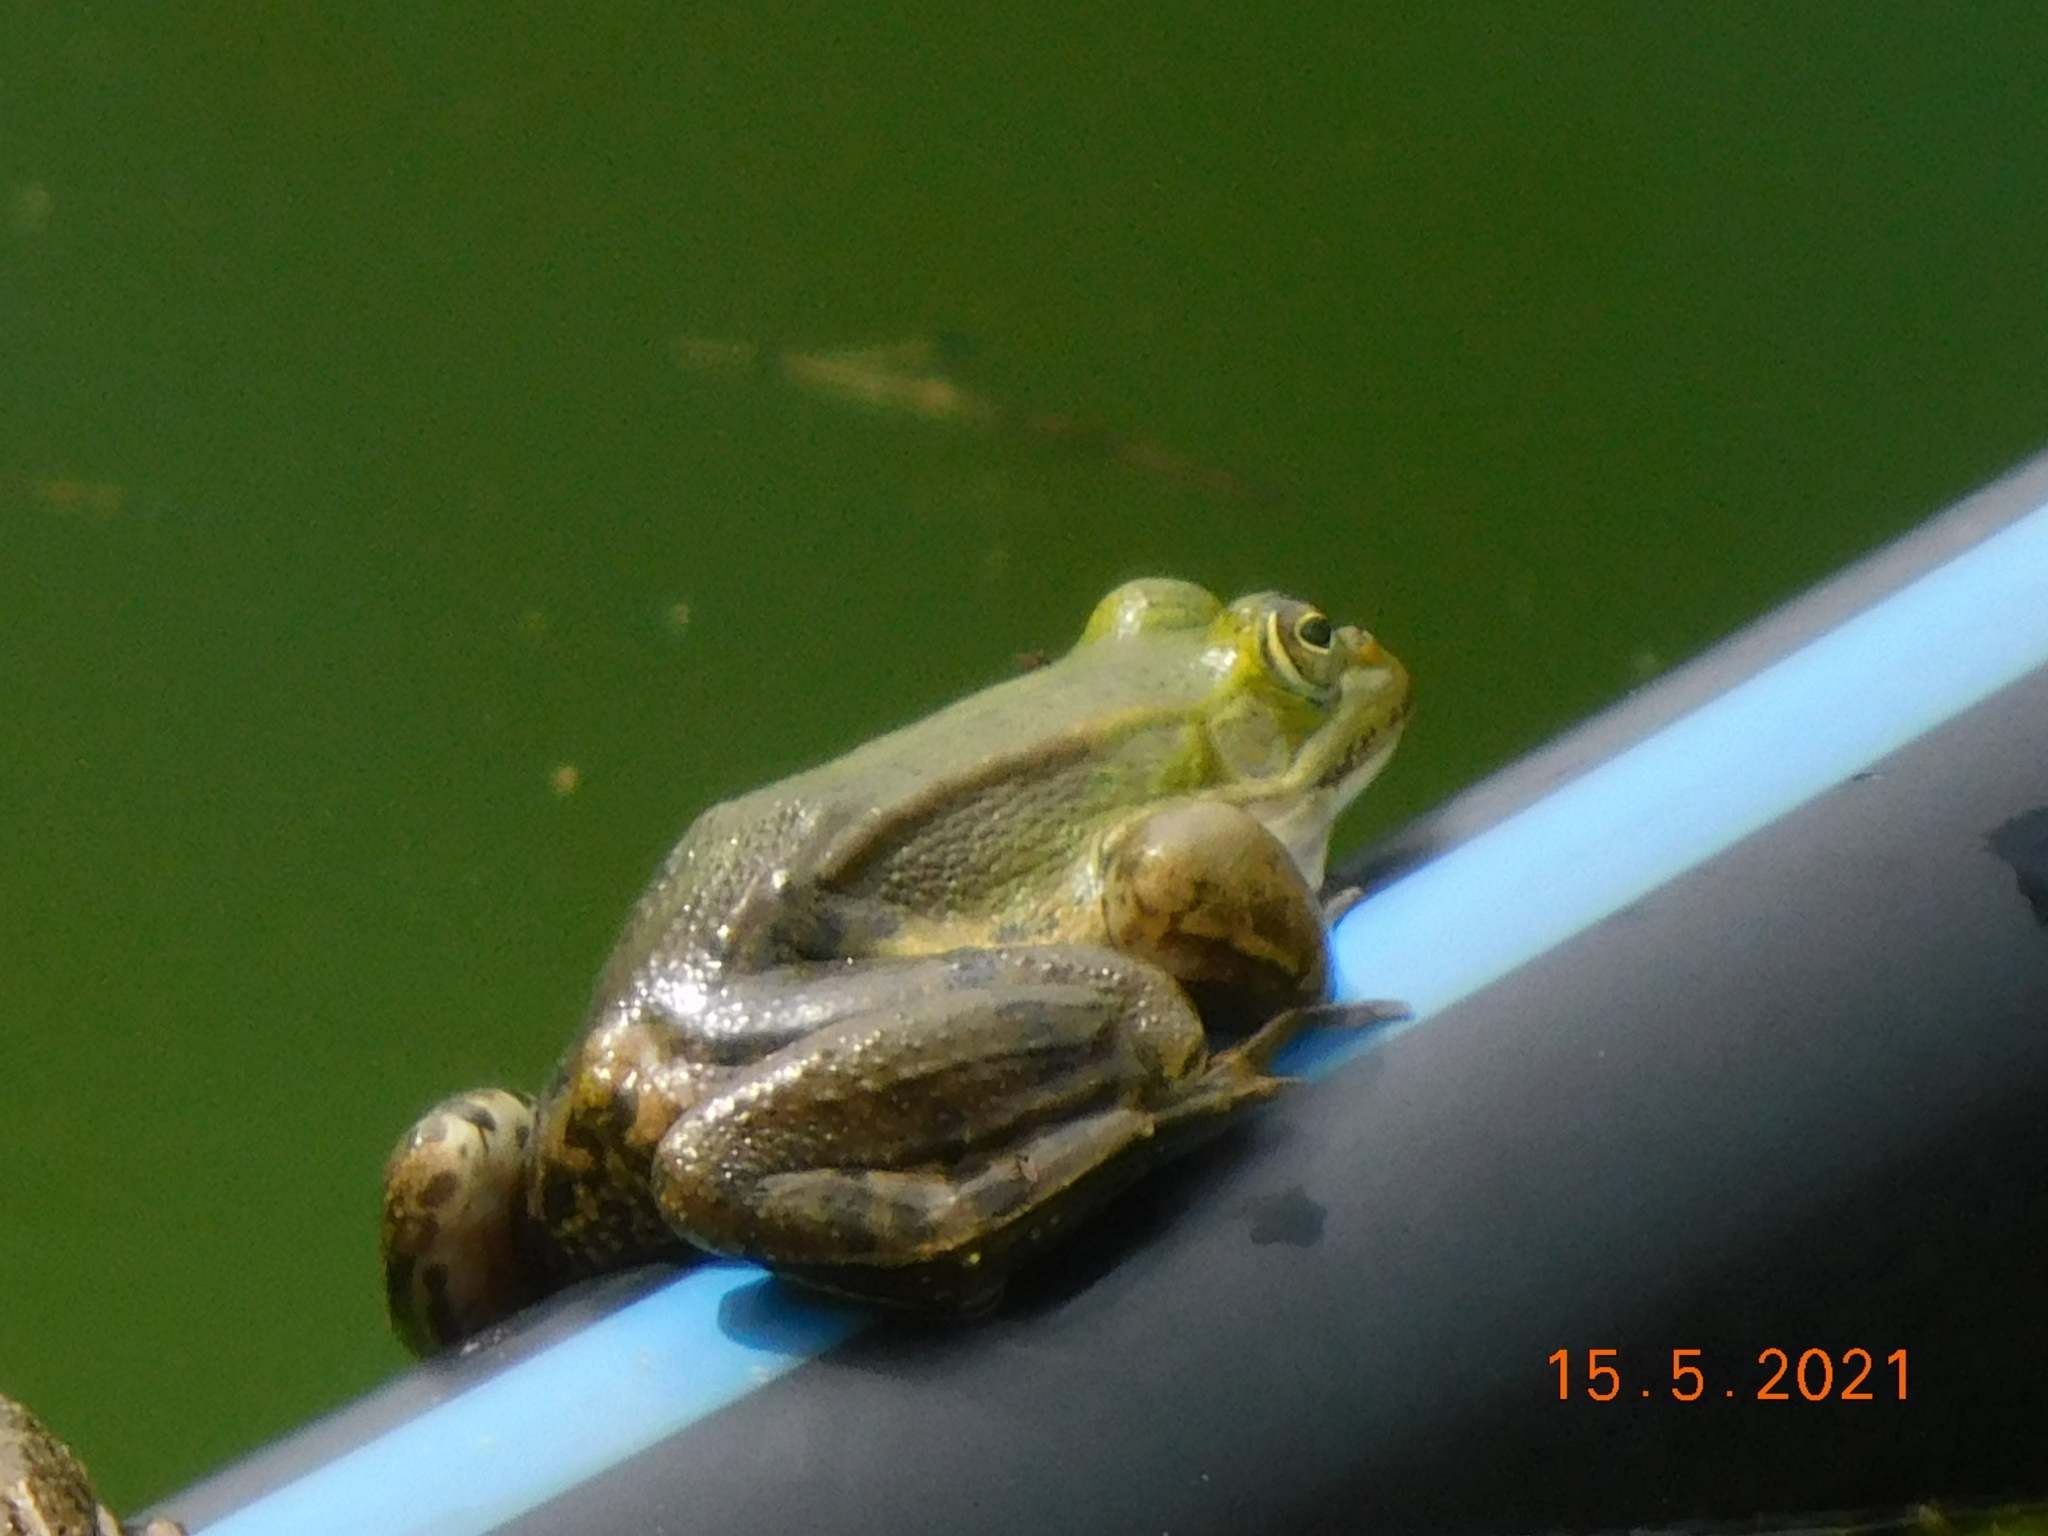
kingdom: Animalia
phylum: Chordata
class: Amphibia
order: Anura
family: Ranidae
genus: Pelophylax
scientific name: Pelophylax
